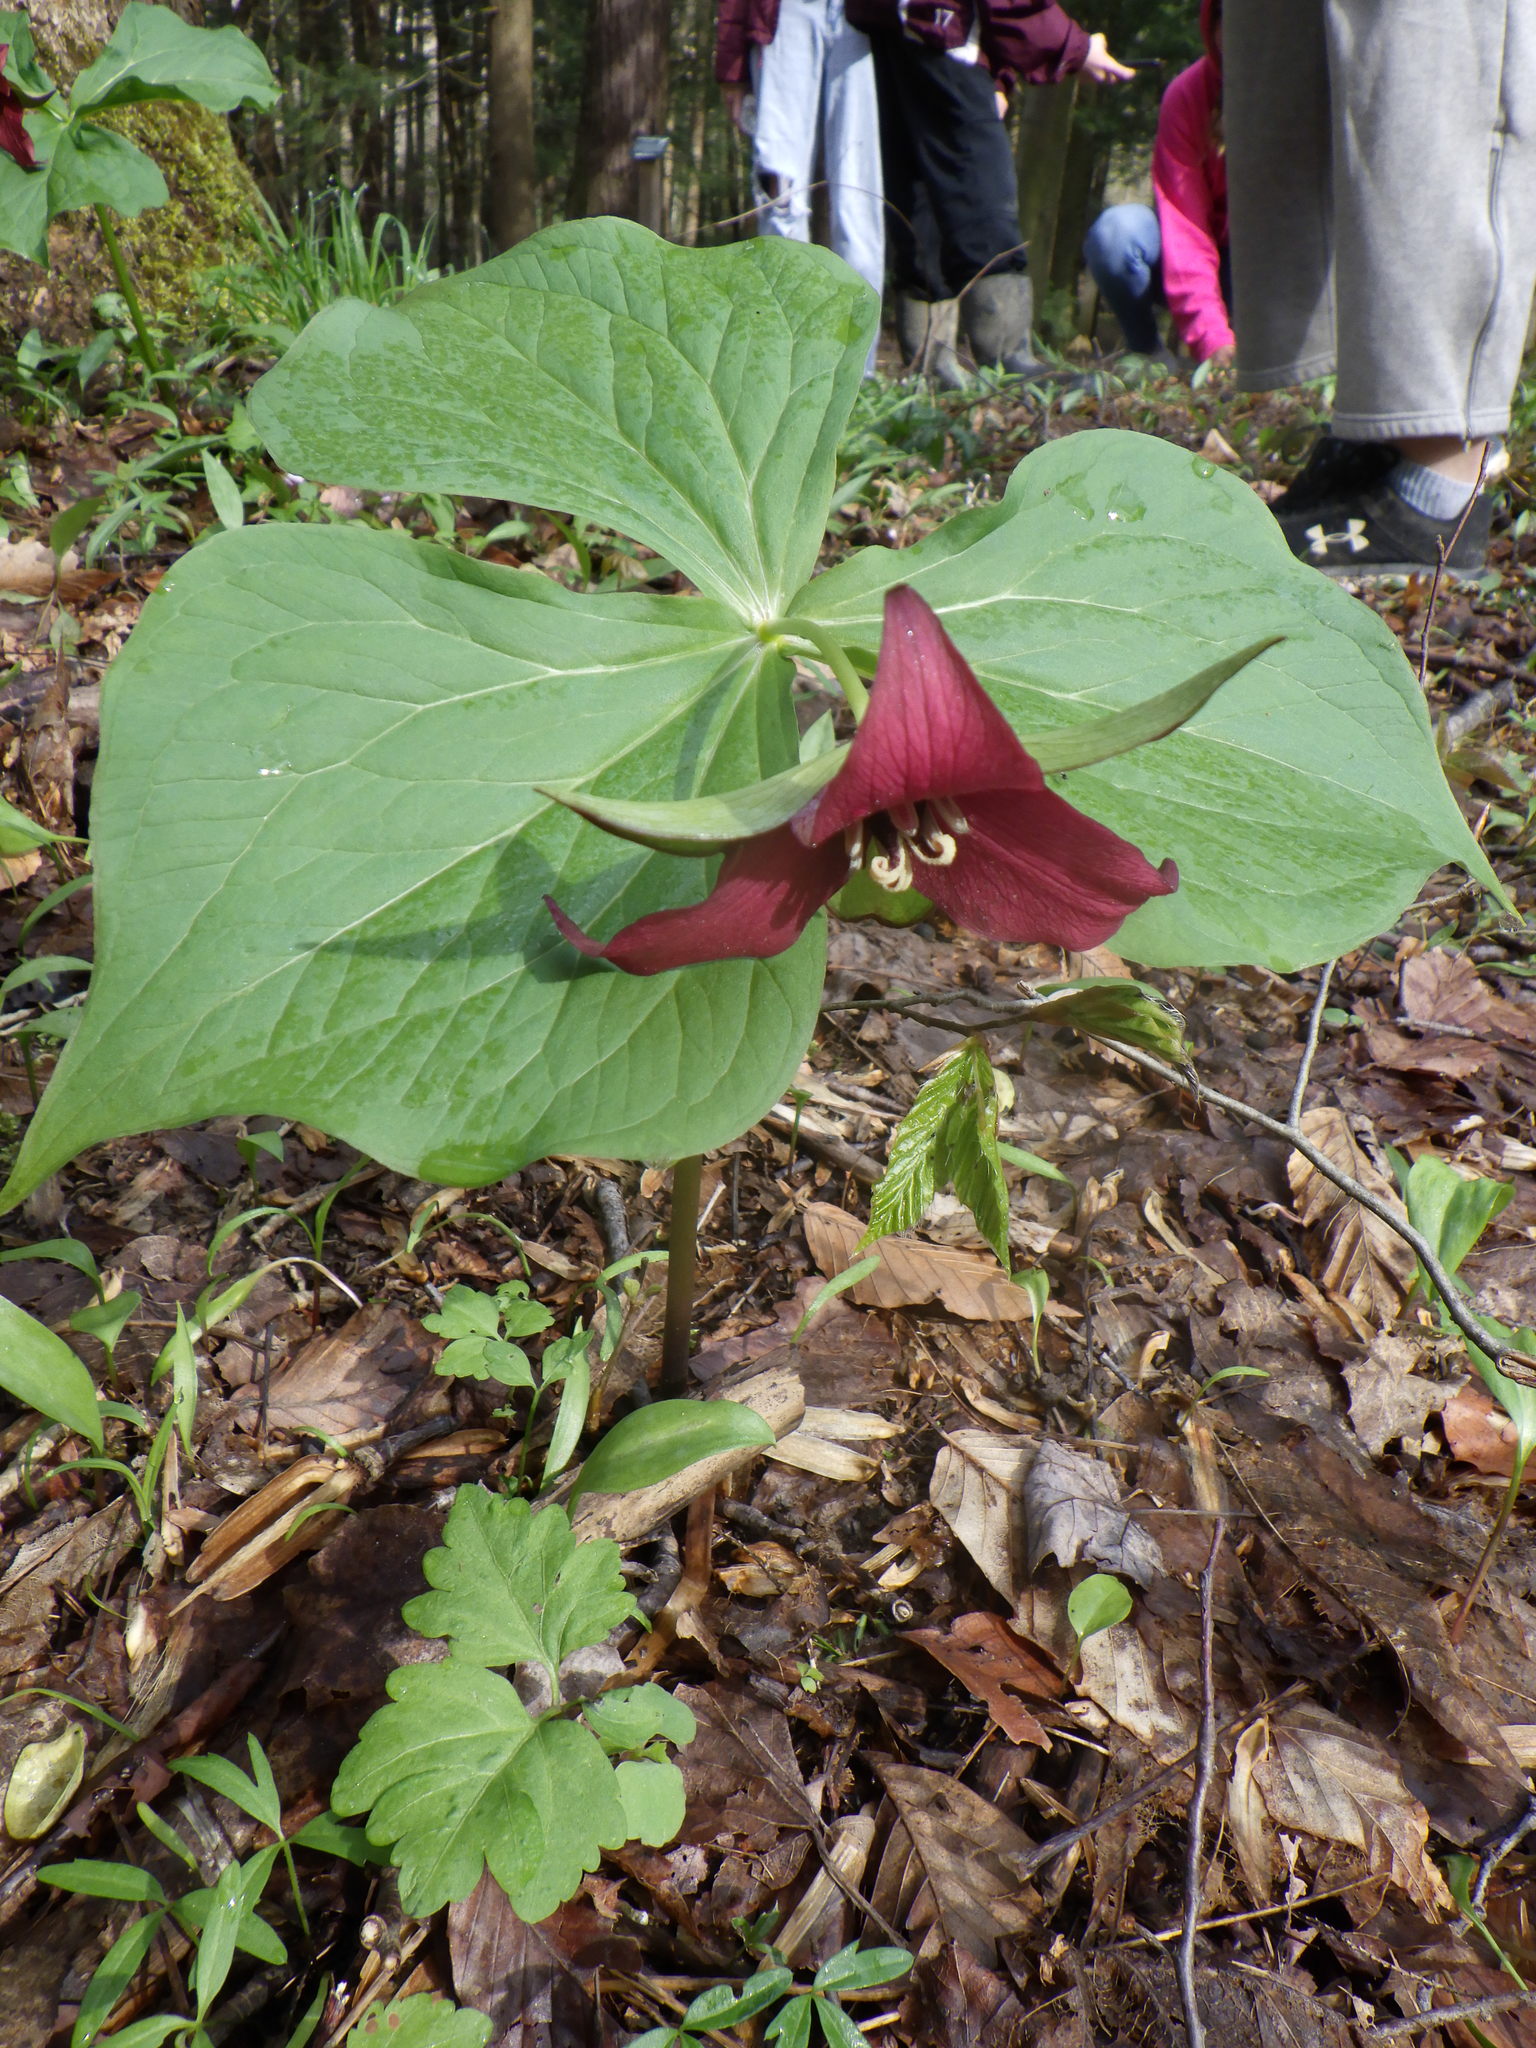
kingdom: Plantae
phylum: Tracheophyta
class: Liliopsida
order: Liliales
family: Melanthiaceae
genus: Trillium
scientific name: Trillium erectum
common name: Purple trillium
